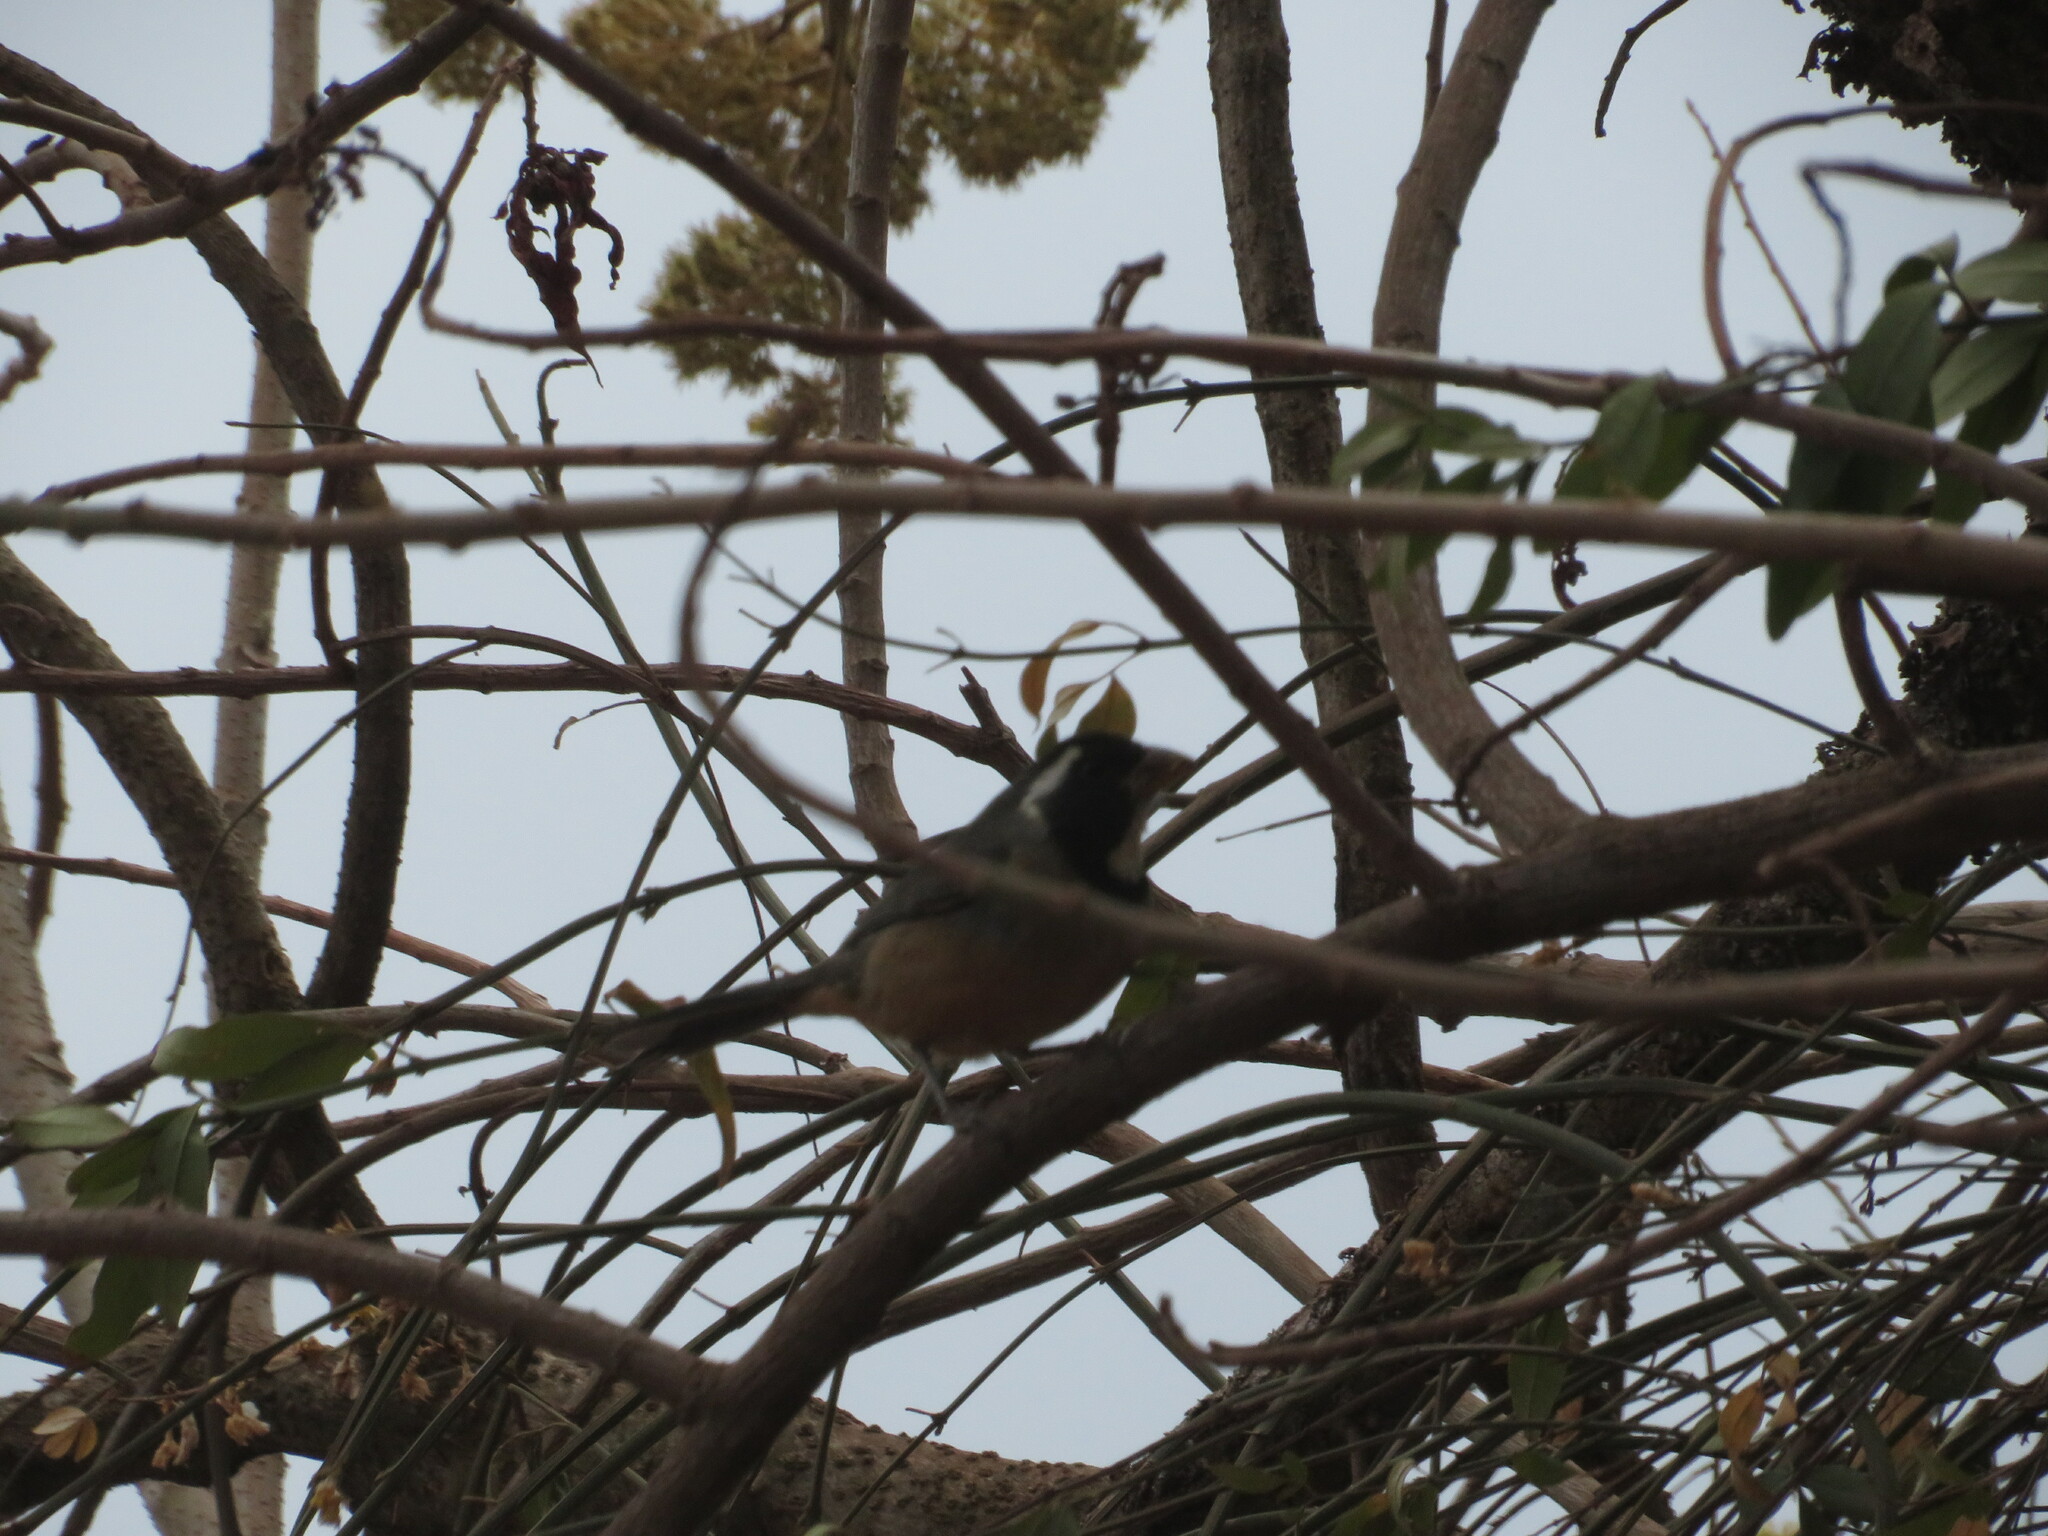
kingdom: Animalia
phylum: Chordata
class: Aves
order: Passeriformes
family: Thraupidae
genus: Saltator
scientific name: Saltator aurantiirostris
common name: Golden-billed saltator
